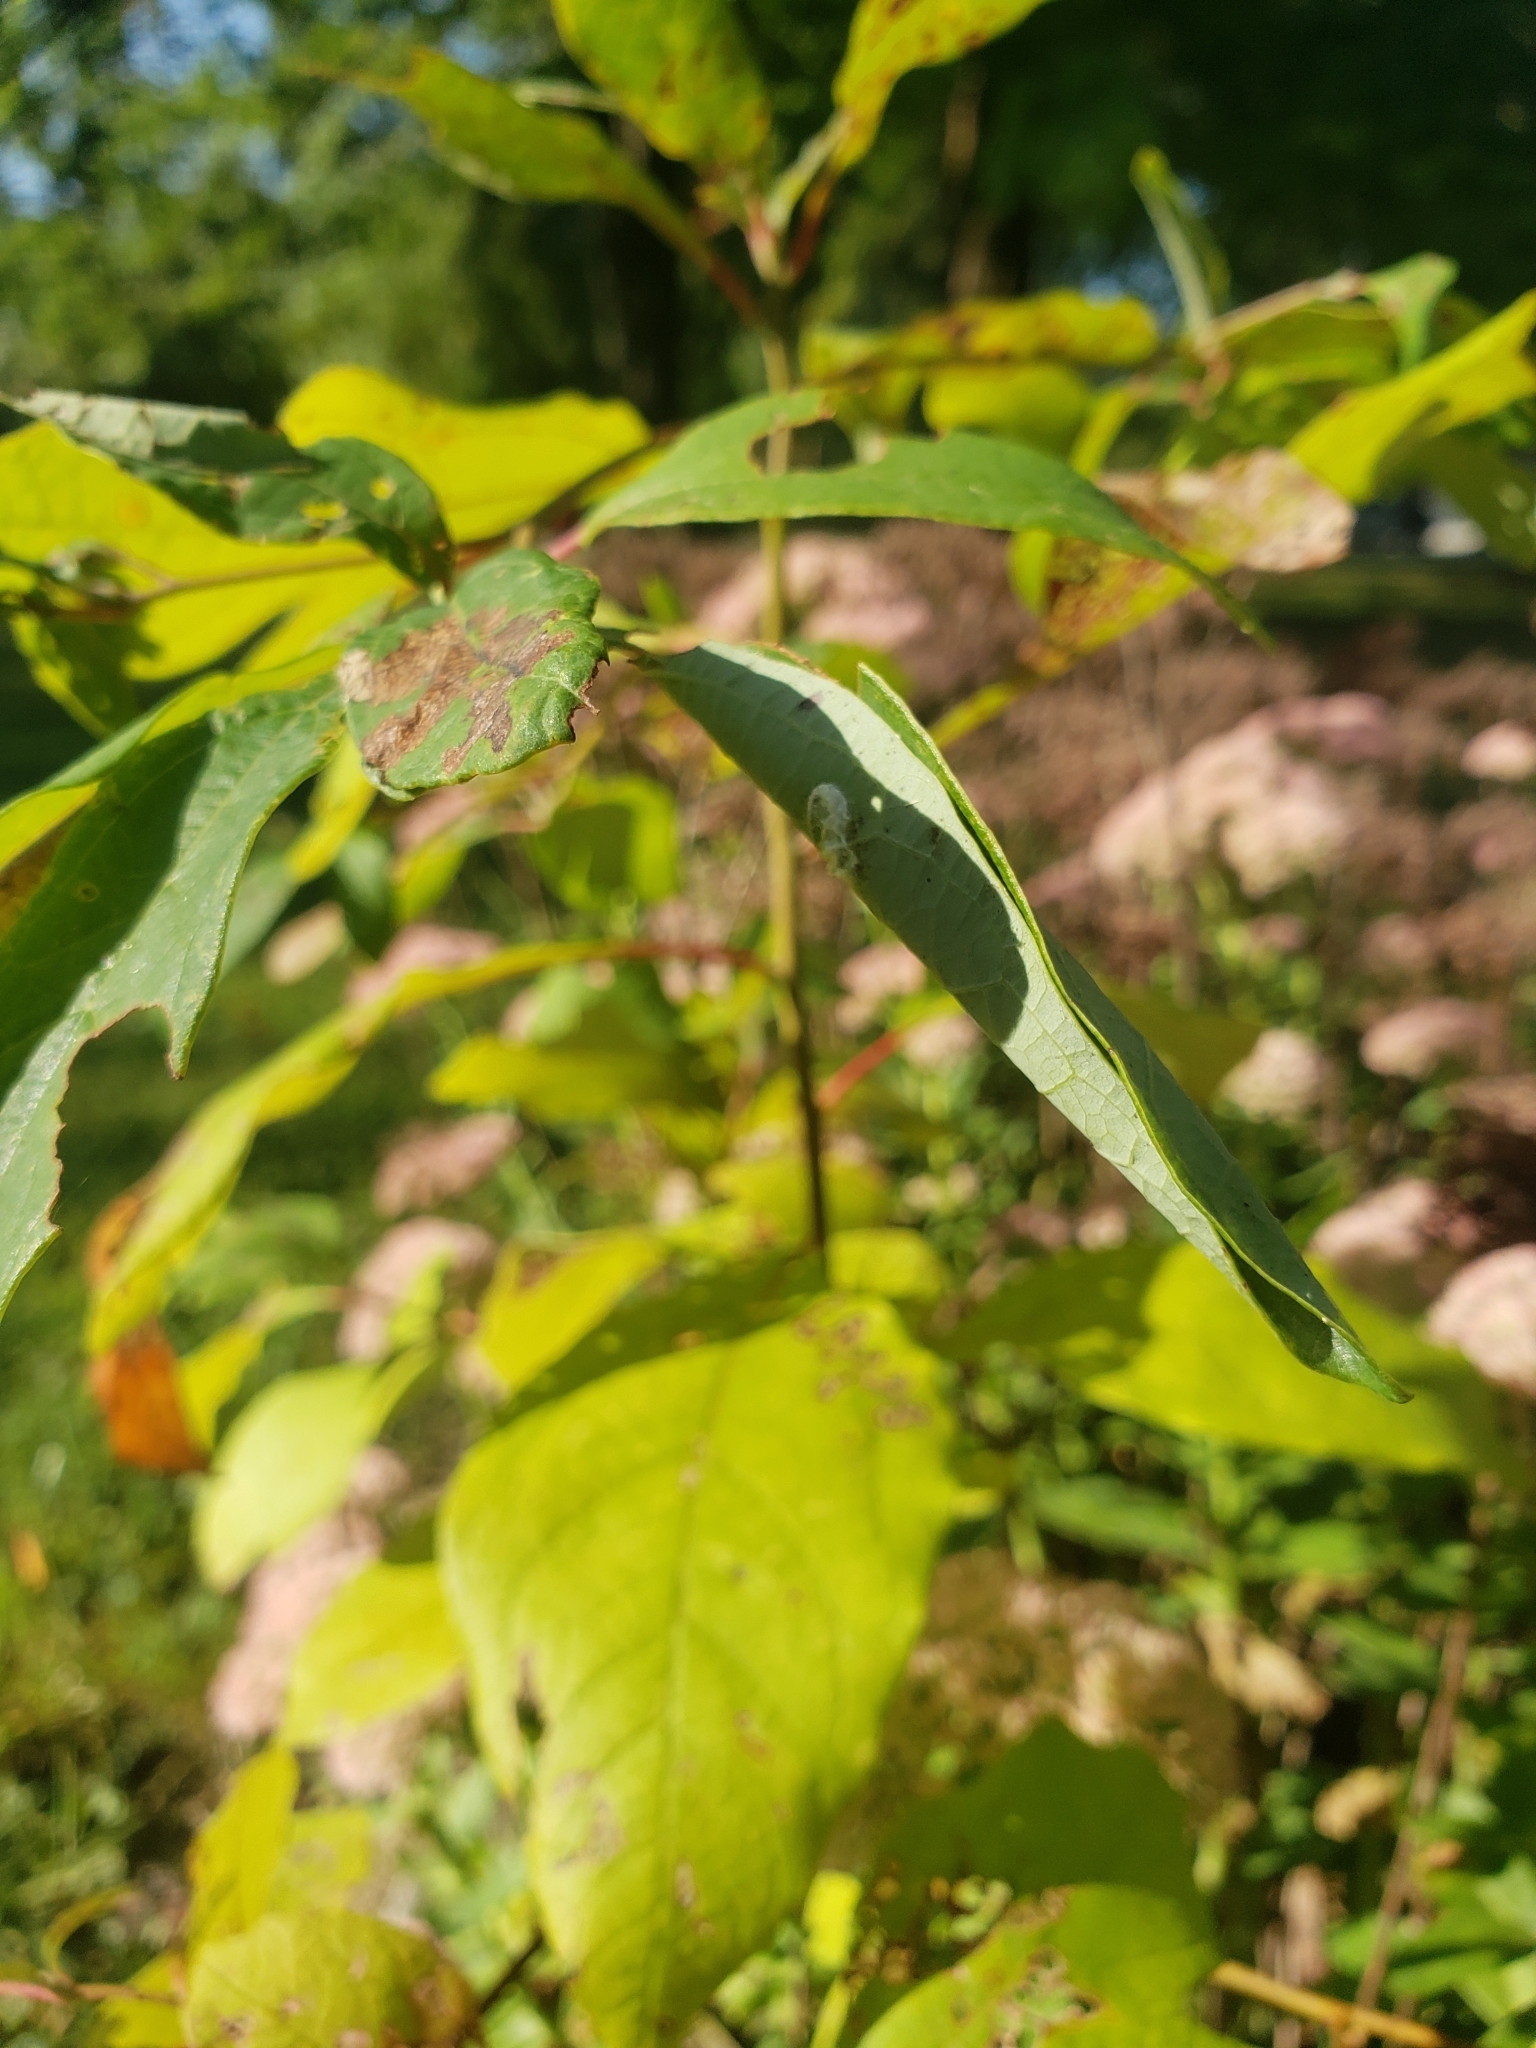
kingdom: Animalia
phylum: Arthropoda
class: Insecta
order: Lepidoptera
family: Papilionidae
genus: Papilio
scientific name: Papilio troilus
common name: Spicebush swallowtail
